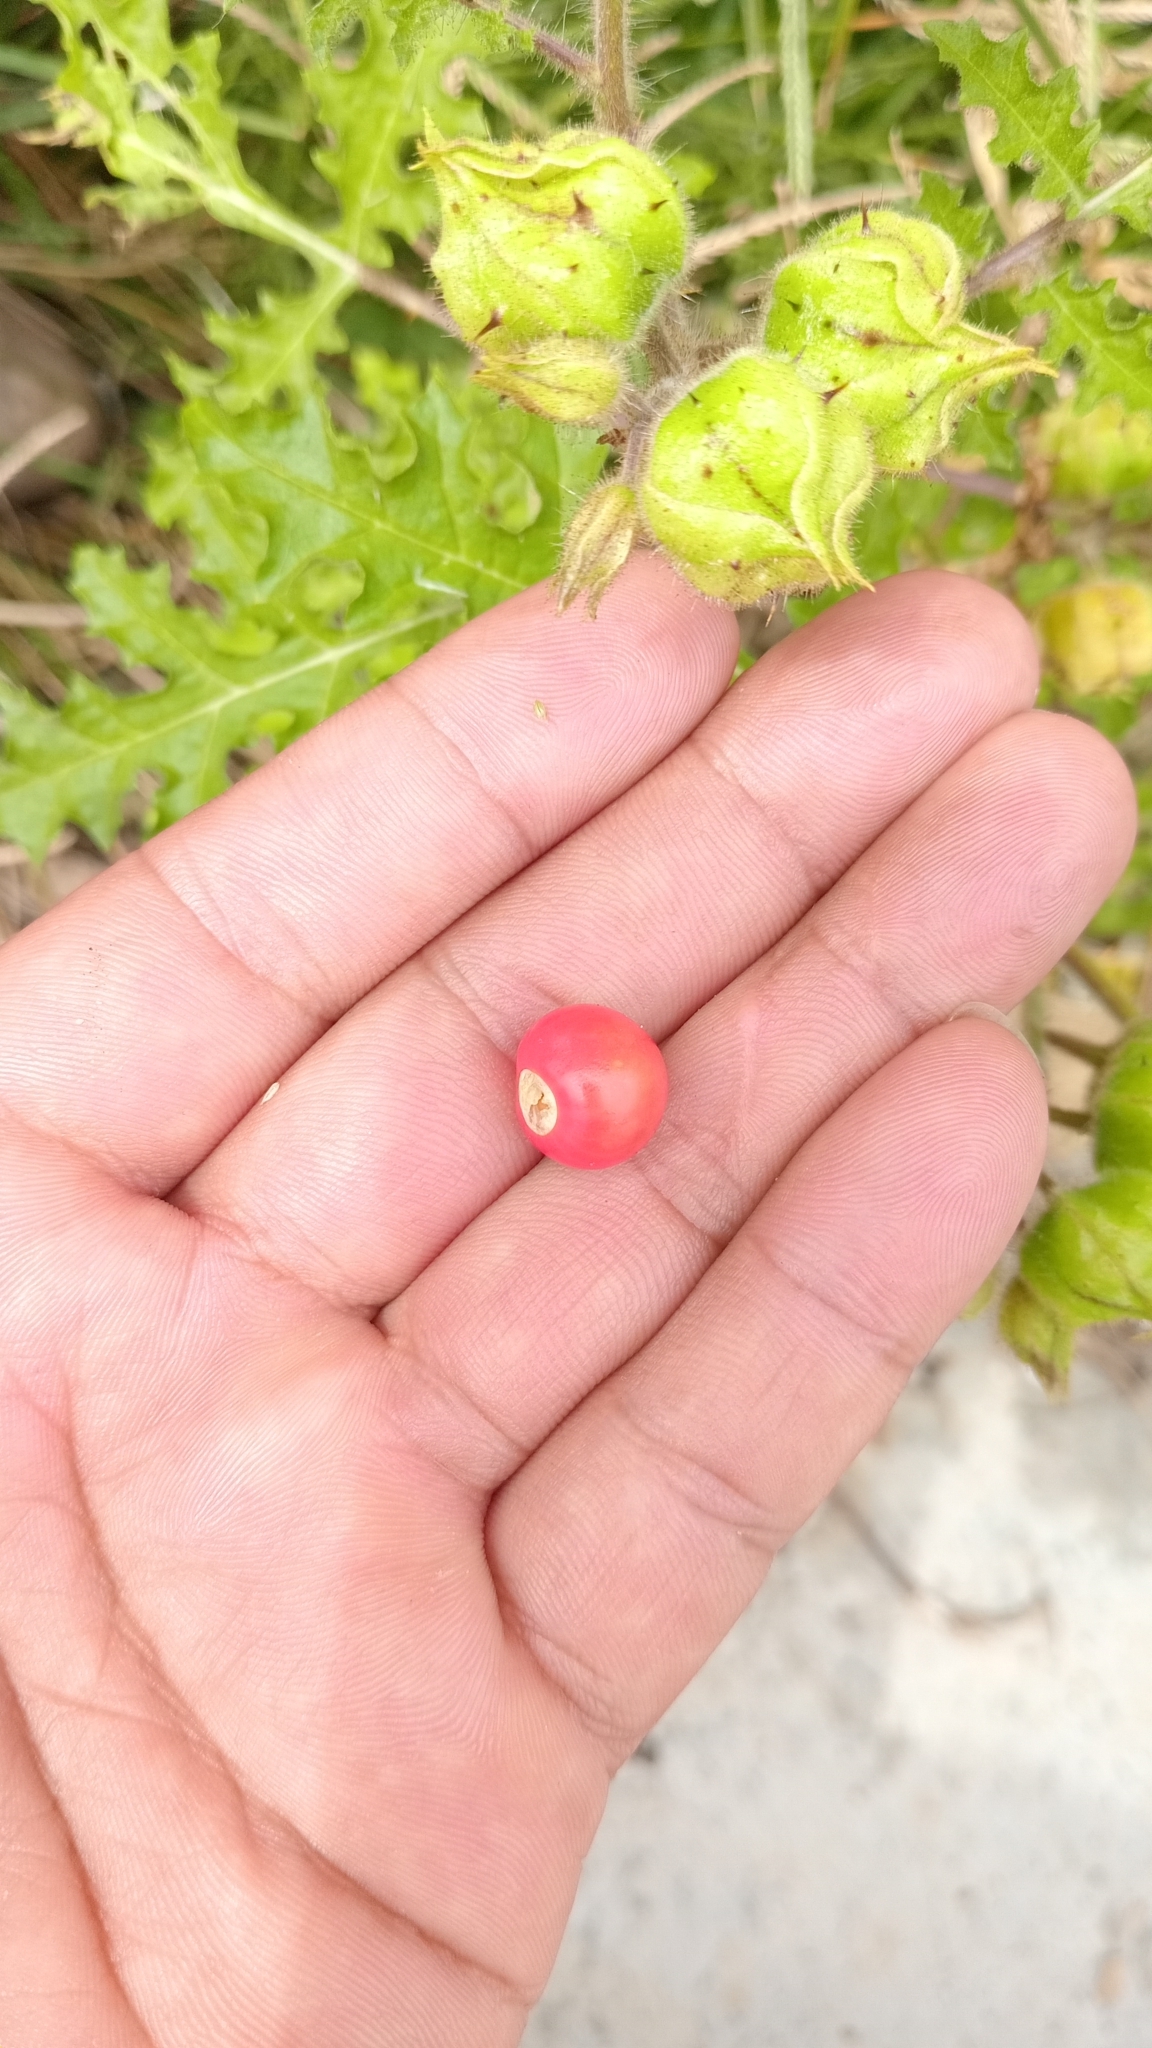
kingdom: Plantae
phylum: Tracheophyta
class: Magnoliopsida
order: Solanales
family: Solanaceae
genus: Solanum
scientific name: Solanum sisymbriifolium
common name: Red buffalo-bur
